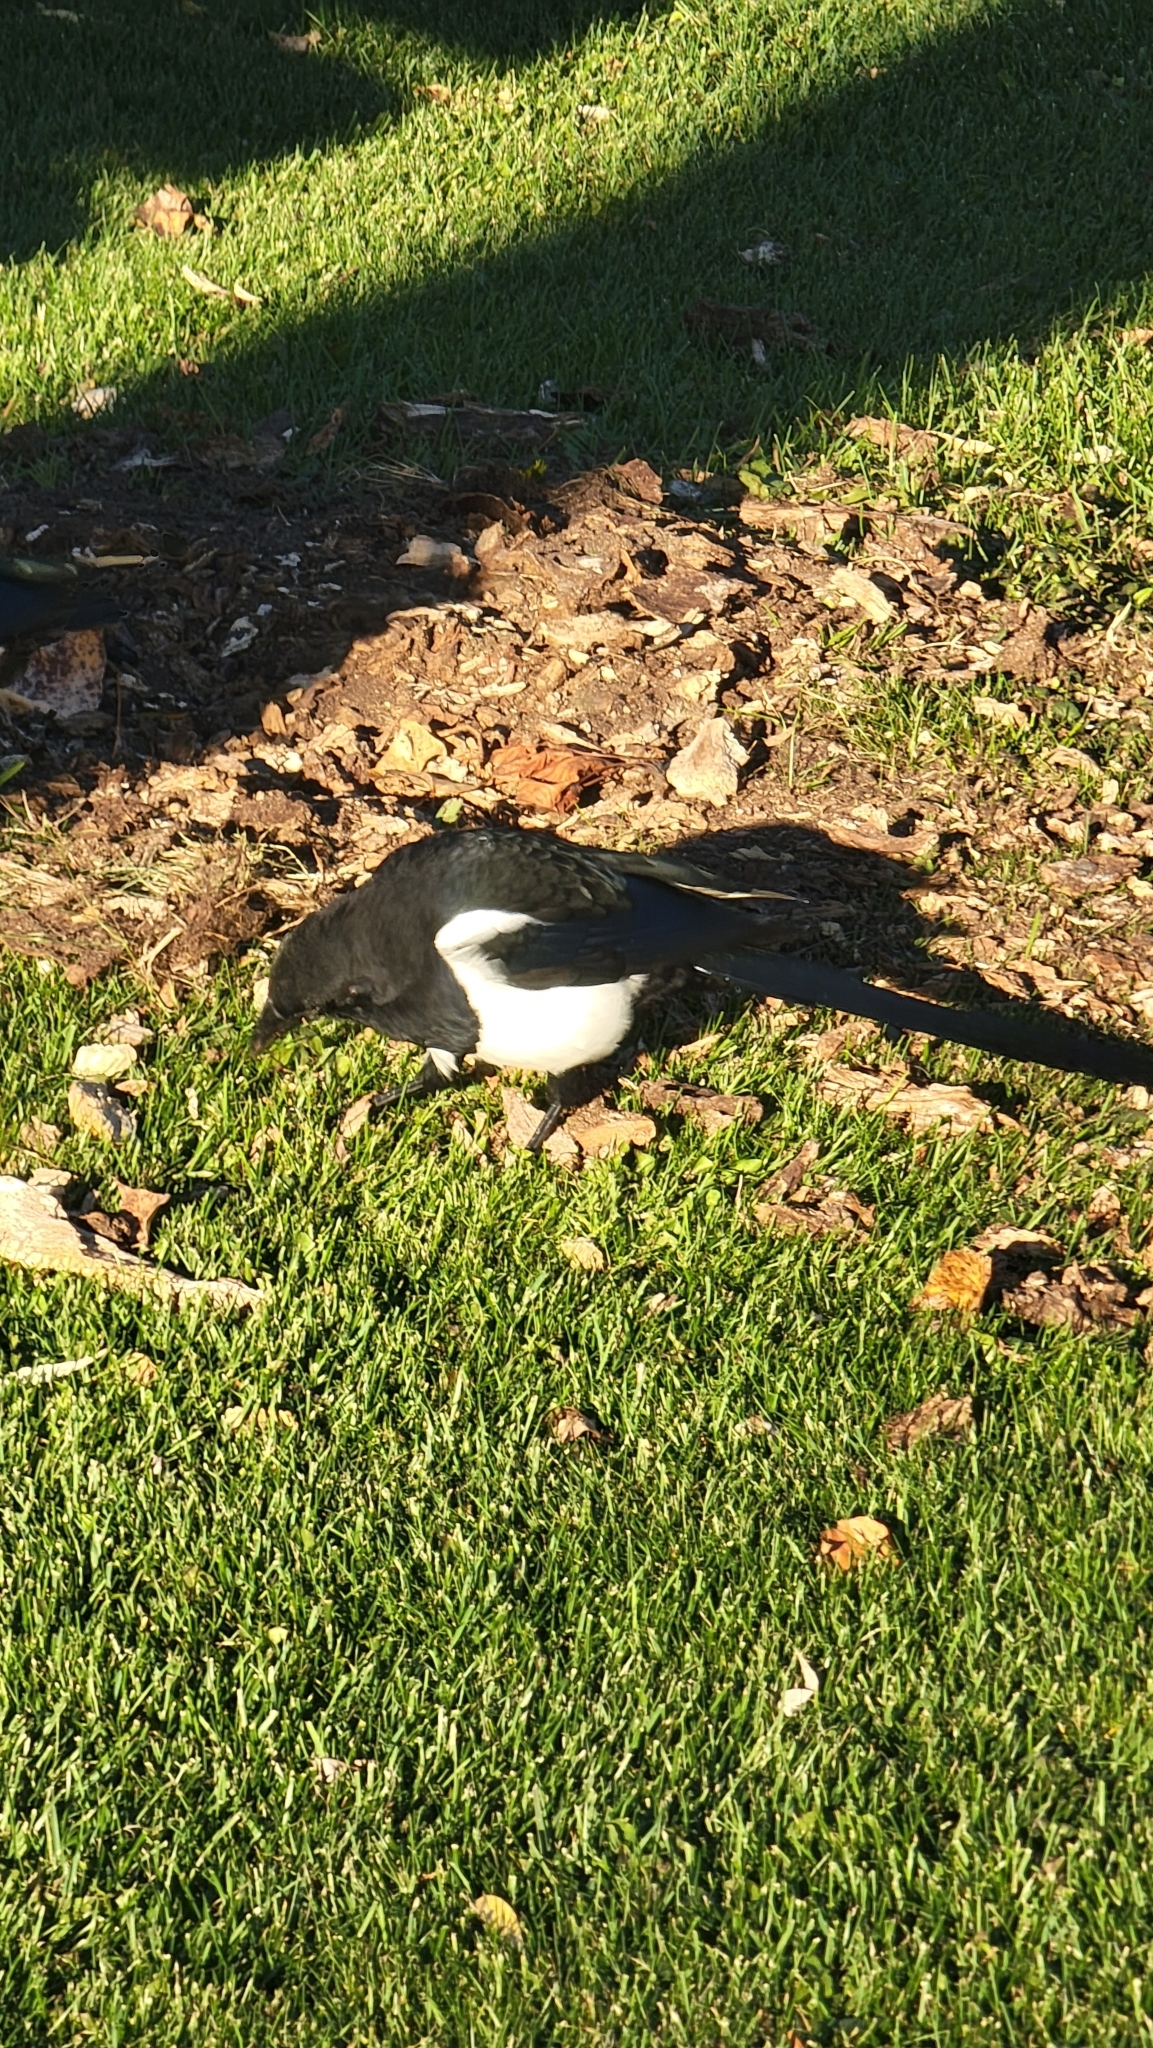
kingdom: Animalia
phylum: Chordata
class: Aves
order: Passeriformes
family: Corvidae
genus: Pica
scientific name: Pica hudsonia
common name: Black-billed magpie
